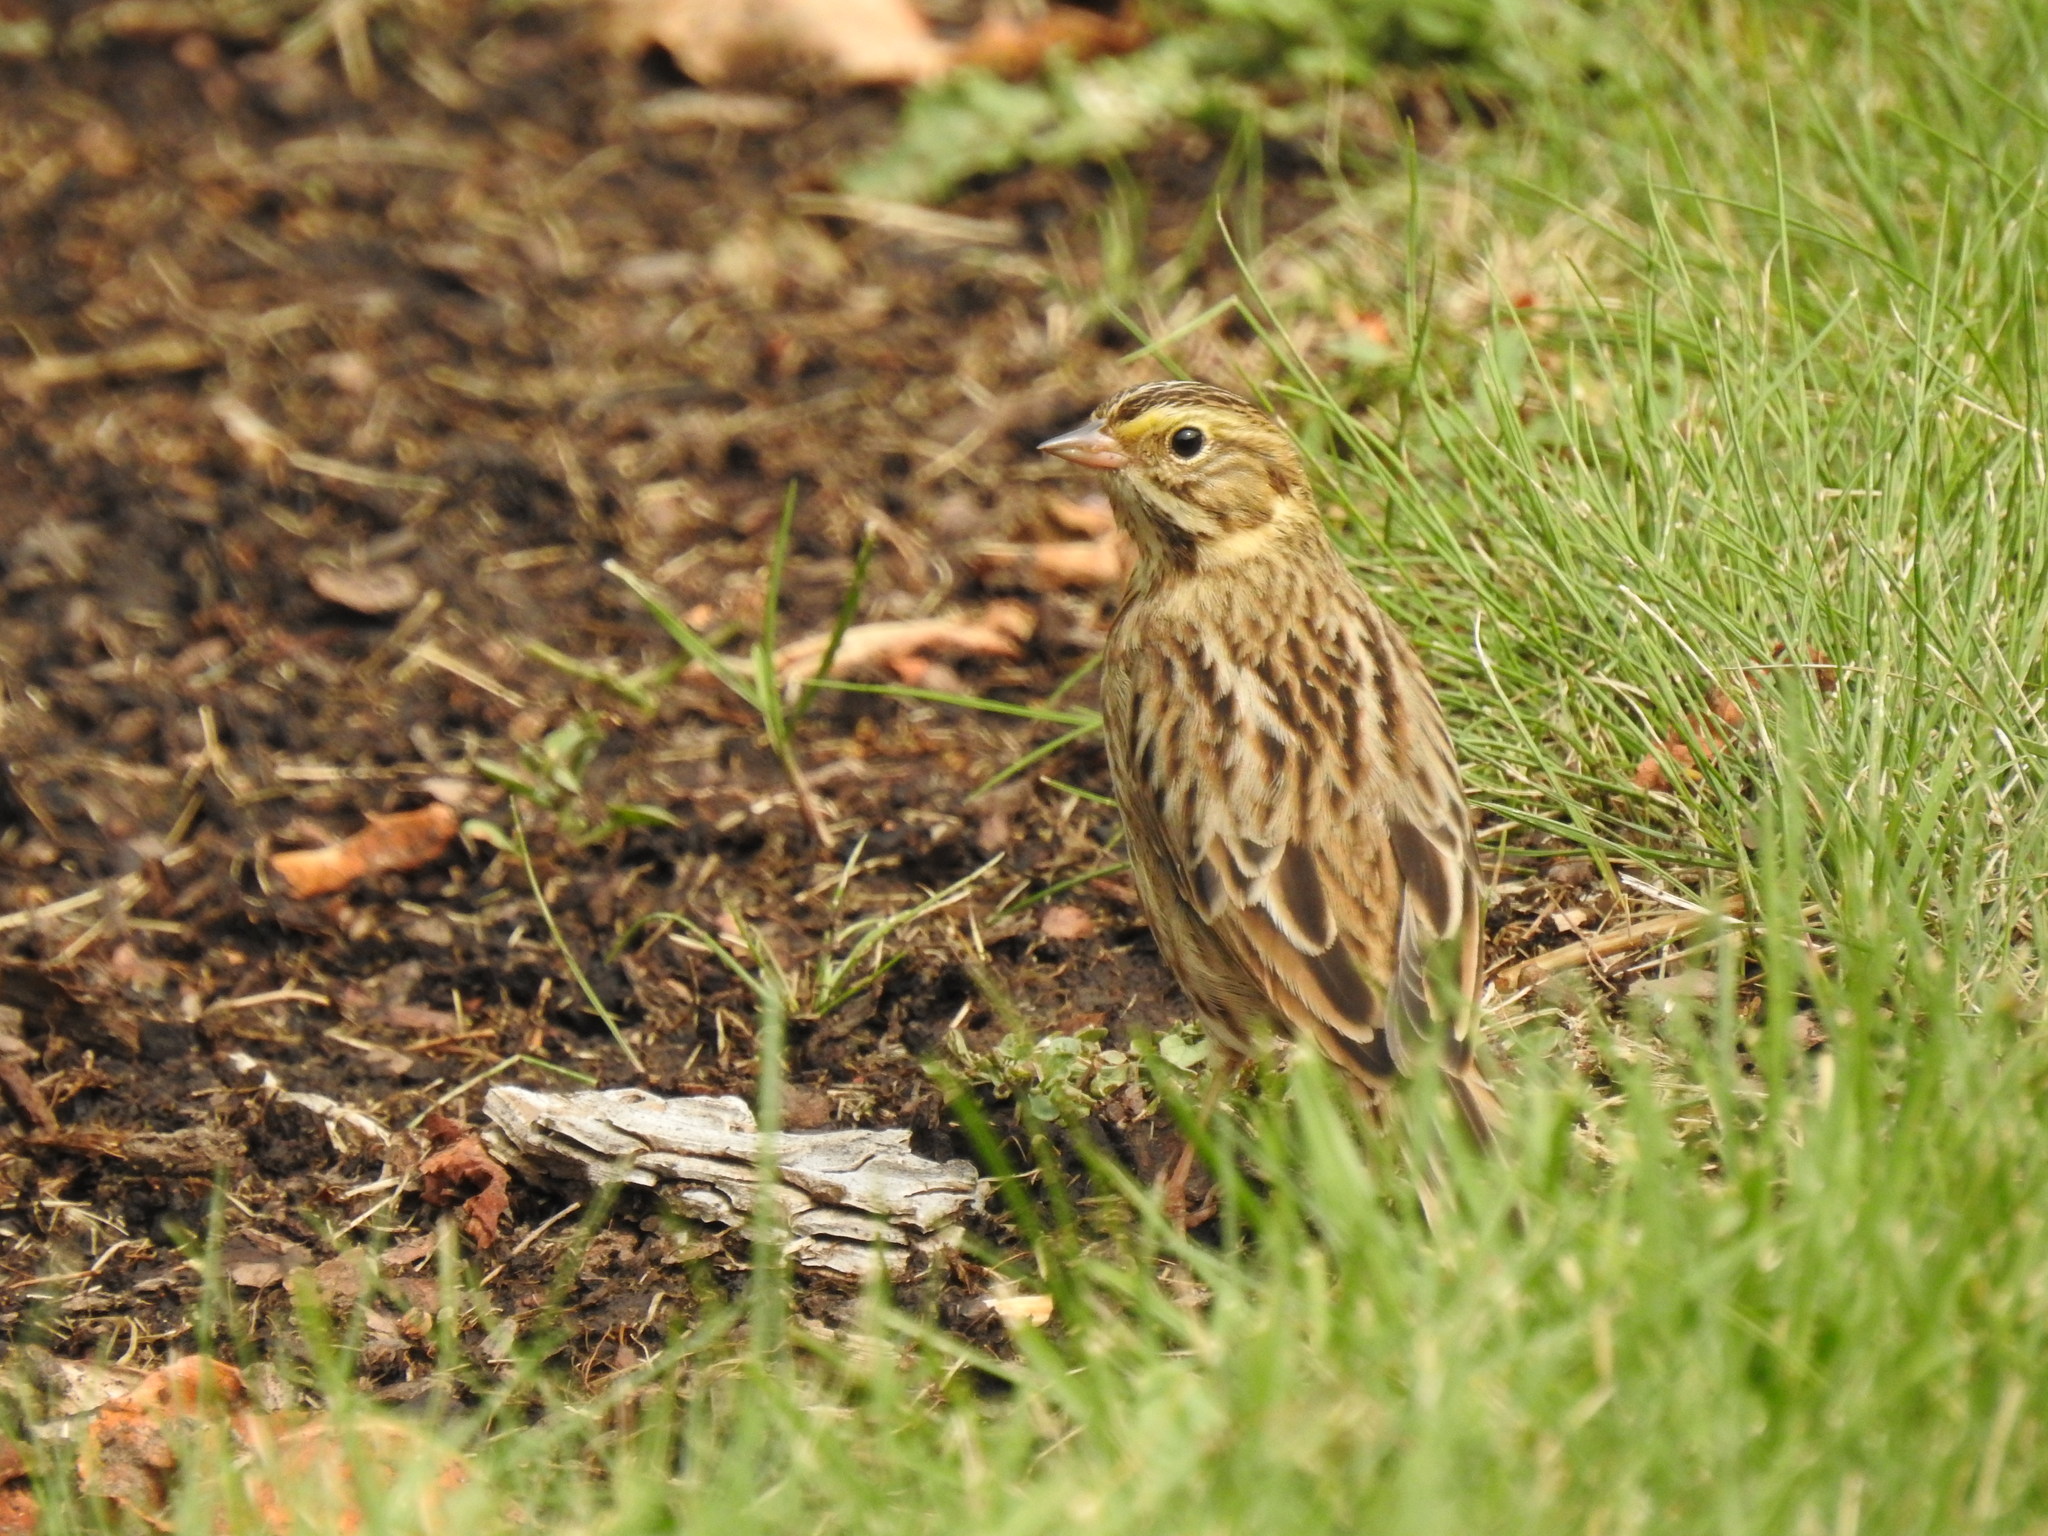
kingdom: Animalia
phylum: Chordata
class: Aves
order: Passeriformes
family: Passerellidae
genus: Passerculus
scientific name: Passerculus sandwichensis
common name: Savannah sparrow
